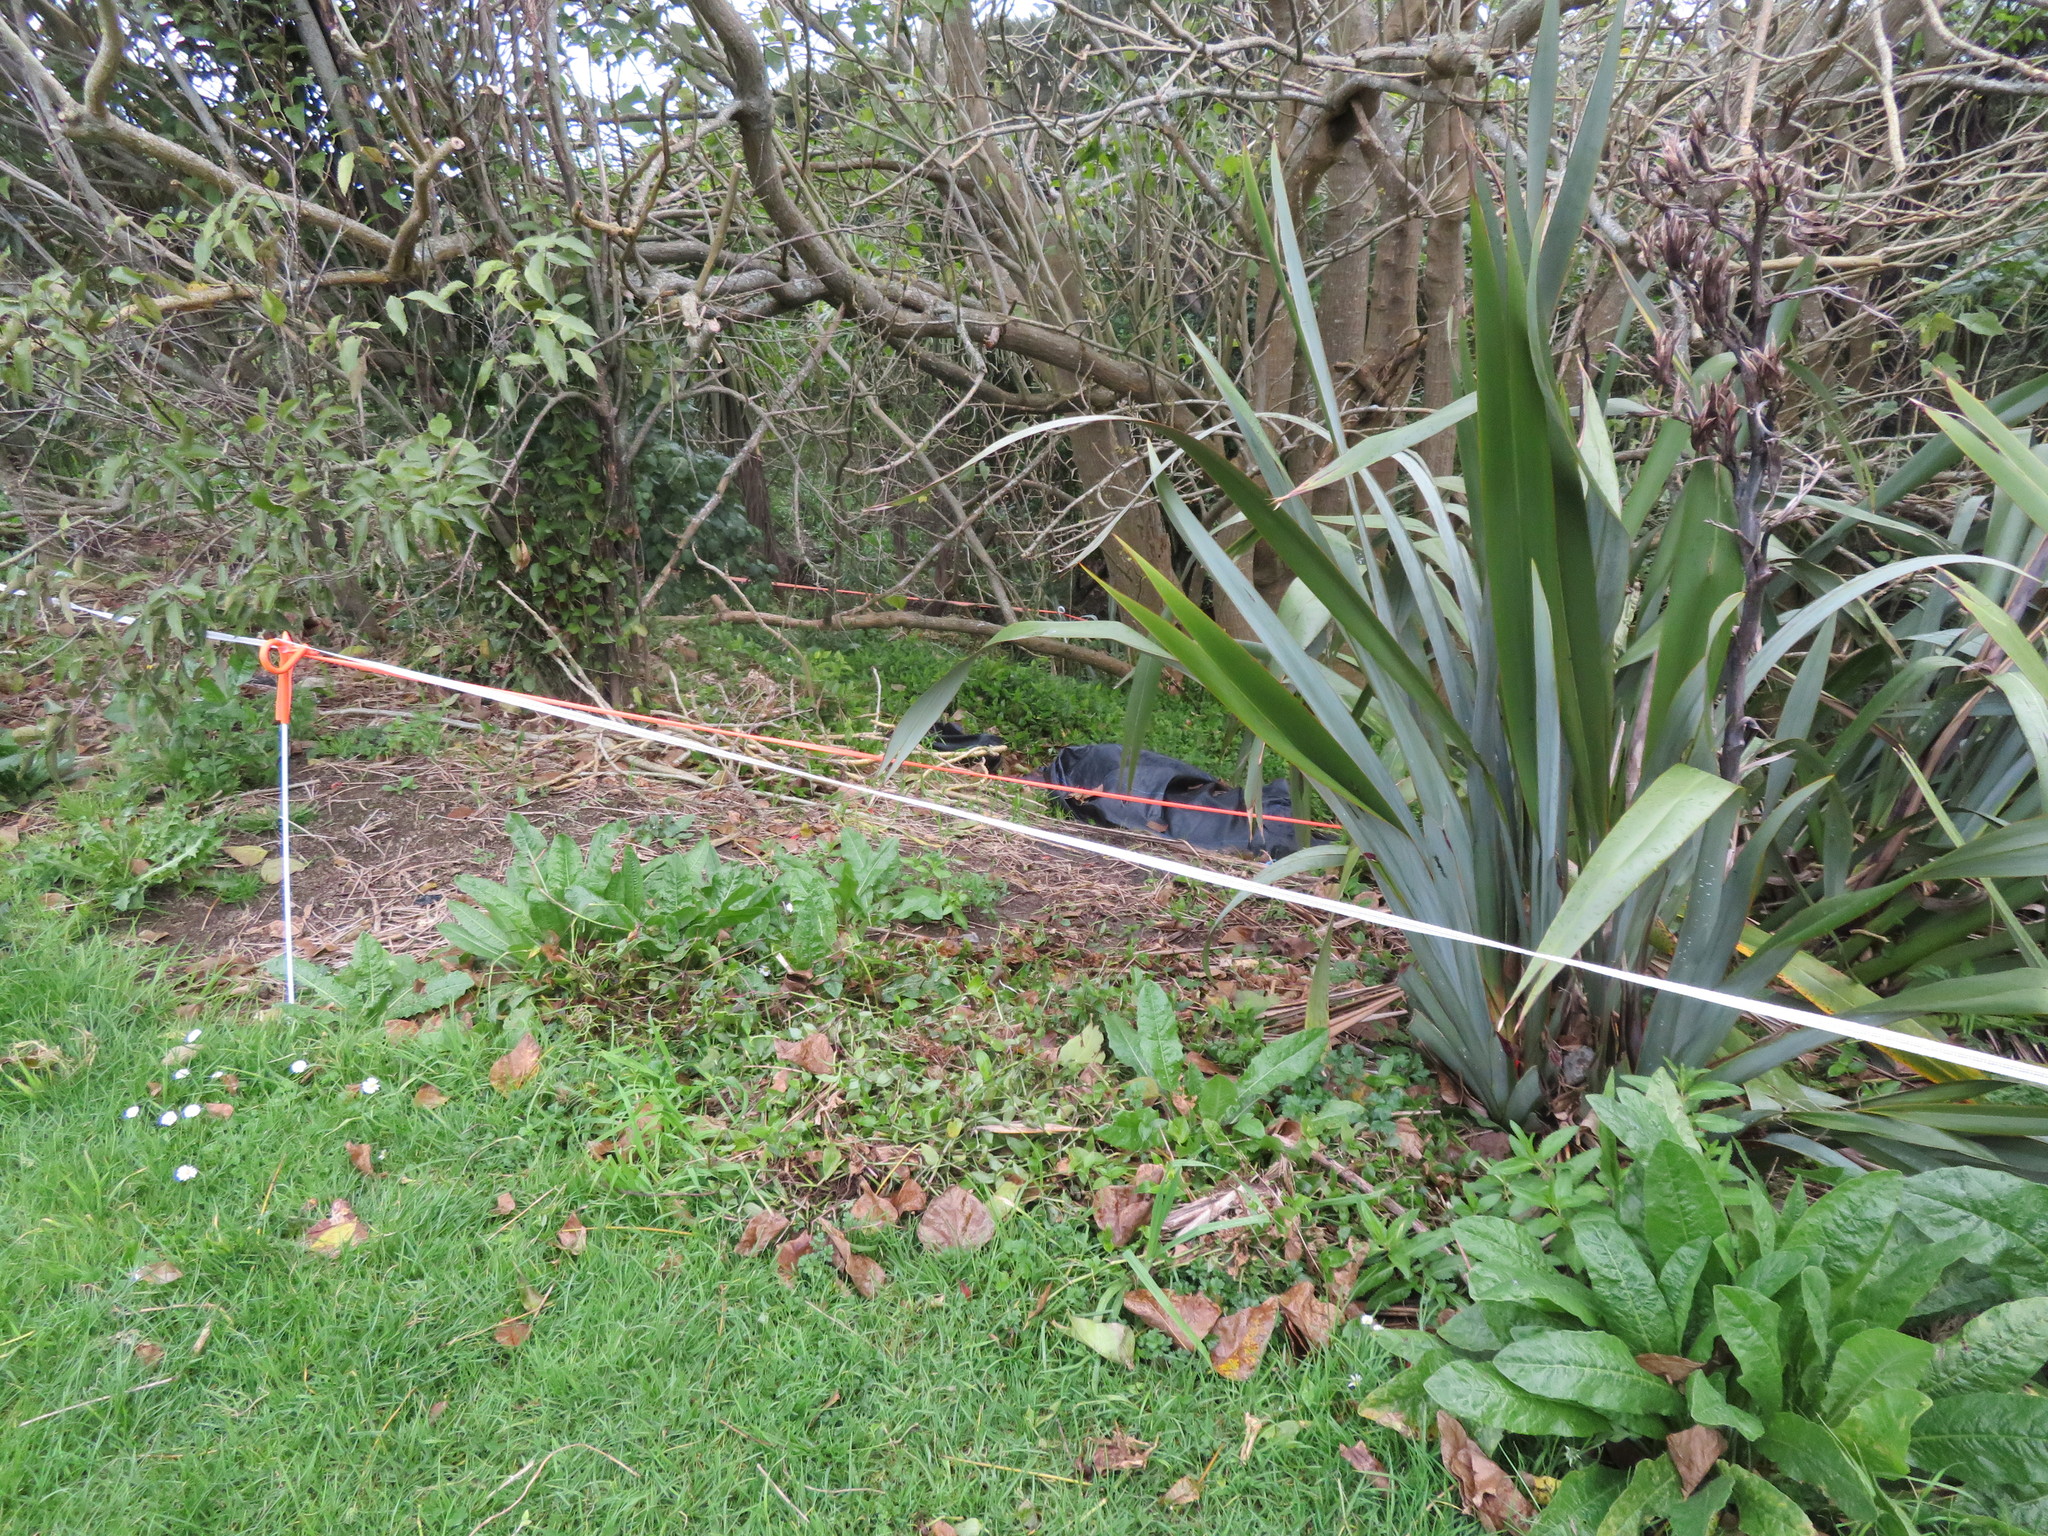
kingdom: Plantae
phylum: Tracheophyta
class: Magnoliopsida
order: Asterales
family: Asteraceae
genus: Helminthotheca
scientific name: Helminthotheca echioides
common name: Ox-tongue
